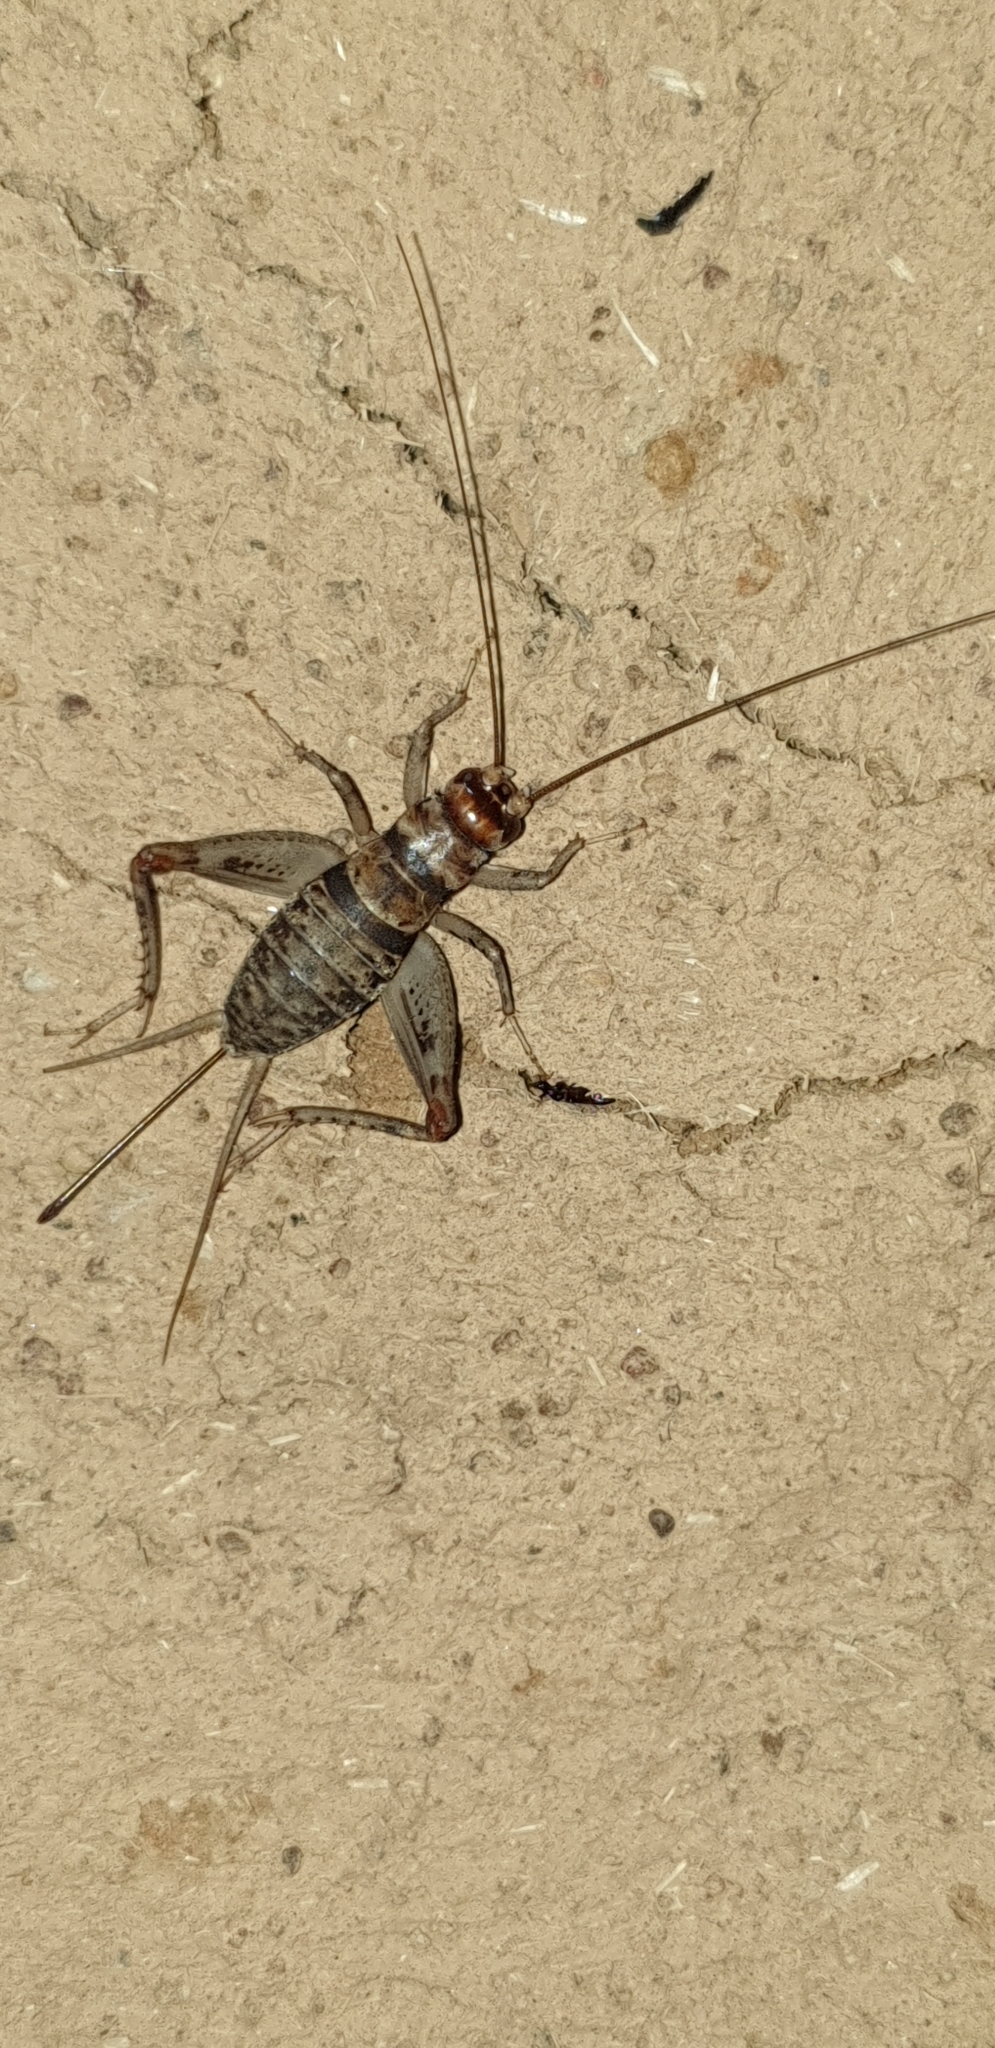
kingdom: Animalia
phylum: Arthropoda
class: Insecta
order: Orthoptera
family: Gryllidae
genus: Gryllodes
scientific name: Gryllodes sigillatus
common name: Tropical house cricket
